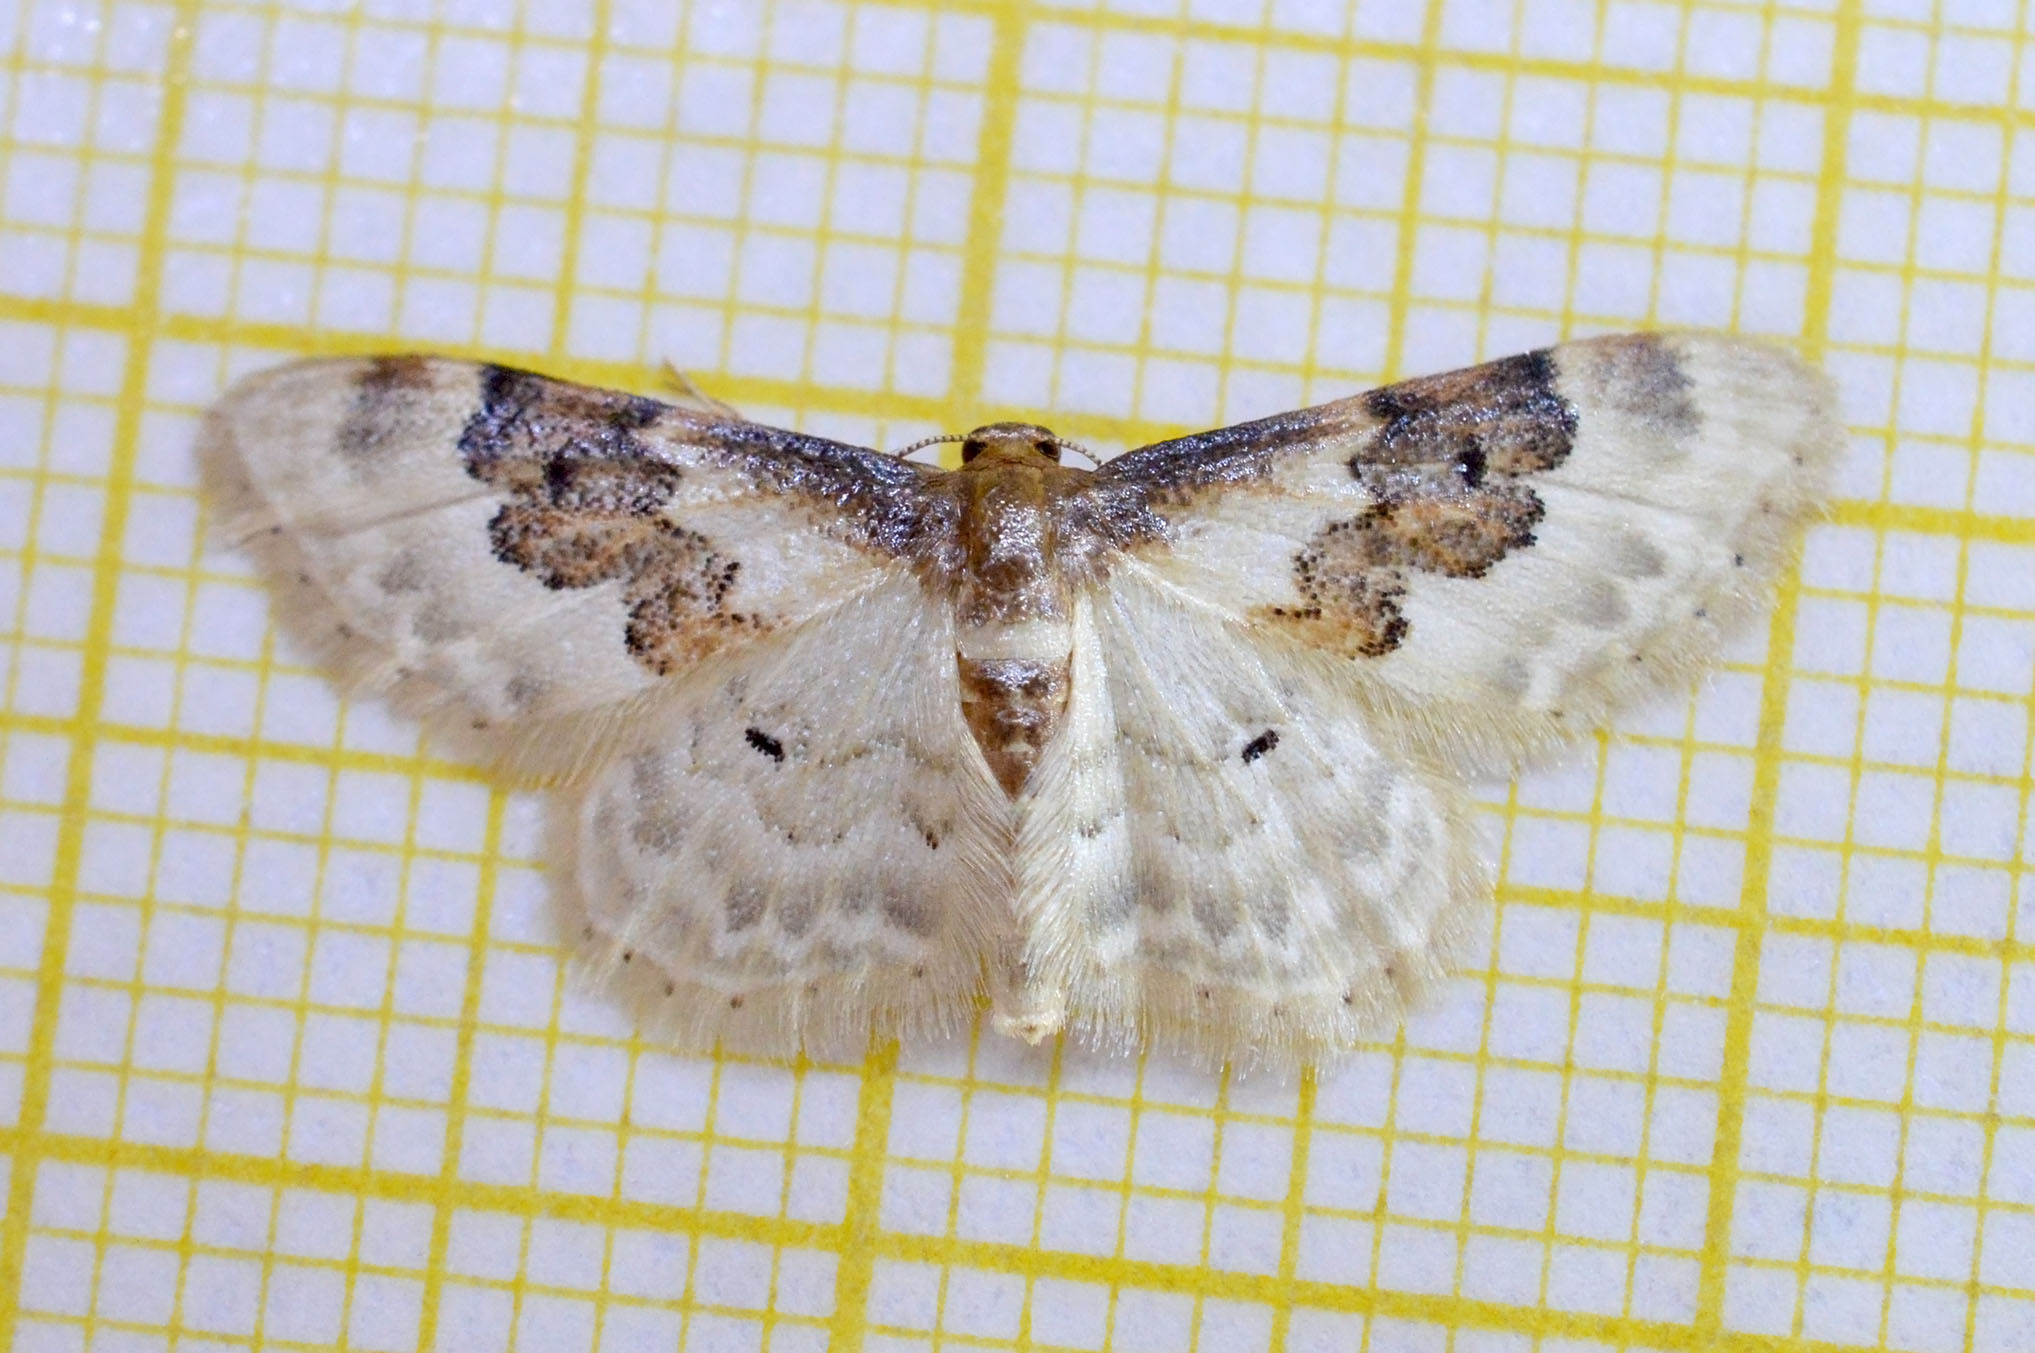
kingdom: Animalia
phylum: Arthropoda
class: Insecta
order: Lepidoptera
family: Geometridae
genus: Idaea
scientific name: Idaea rusticata
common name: Least carpet
